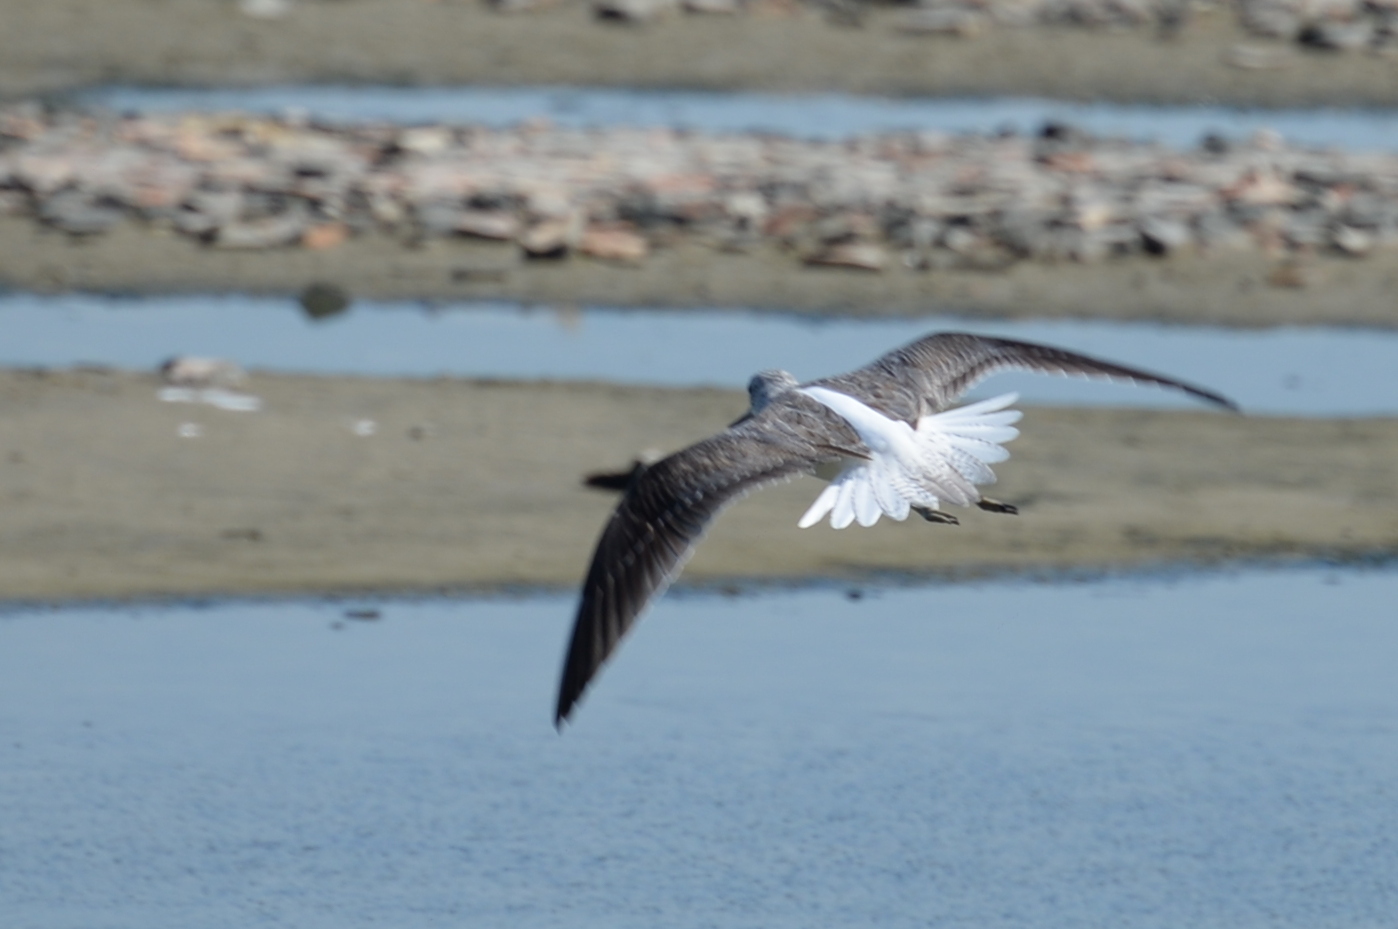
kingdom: Animalia
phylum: Chordata
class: Aves
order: Charadriiformes
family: Scolopacidae
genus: Tringa
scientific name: Tringa nebularia
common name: Common greenshank
